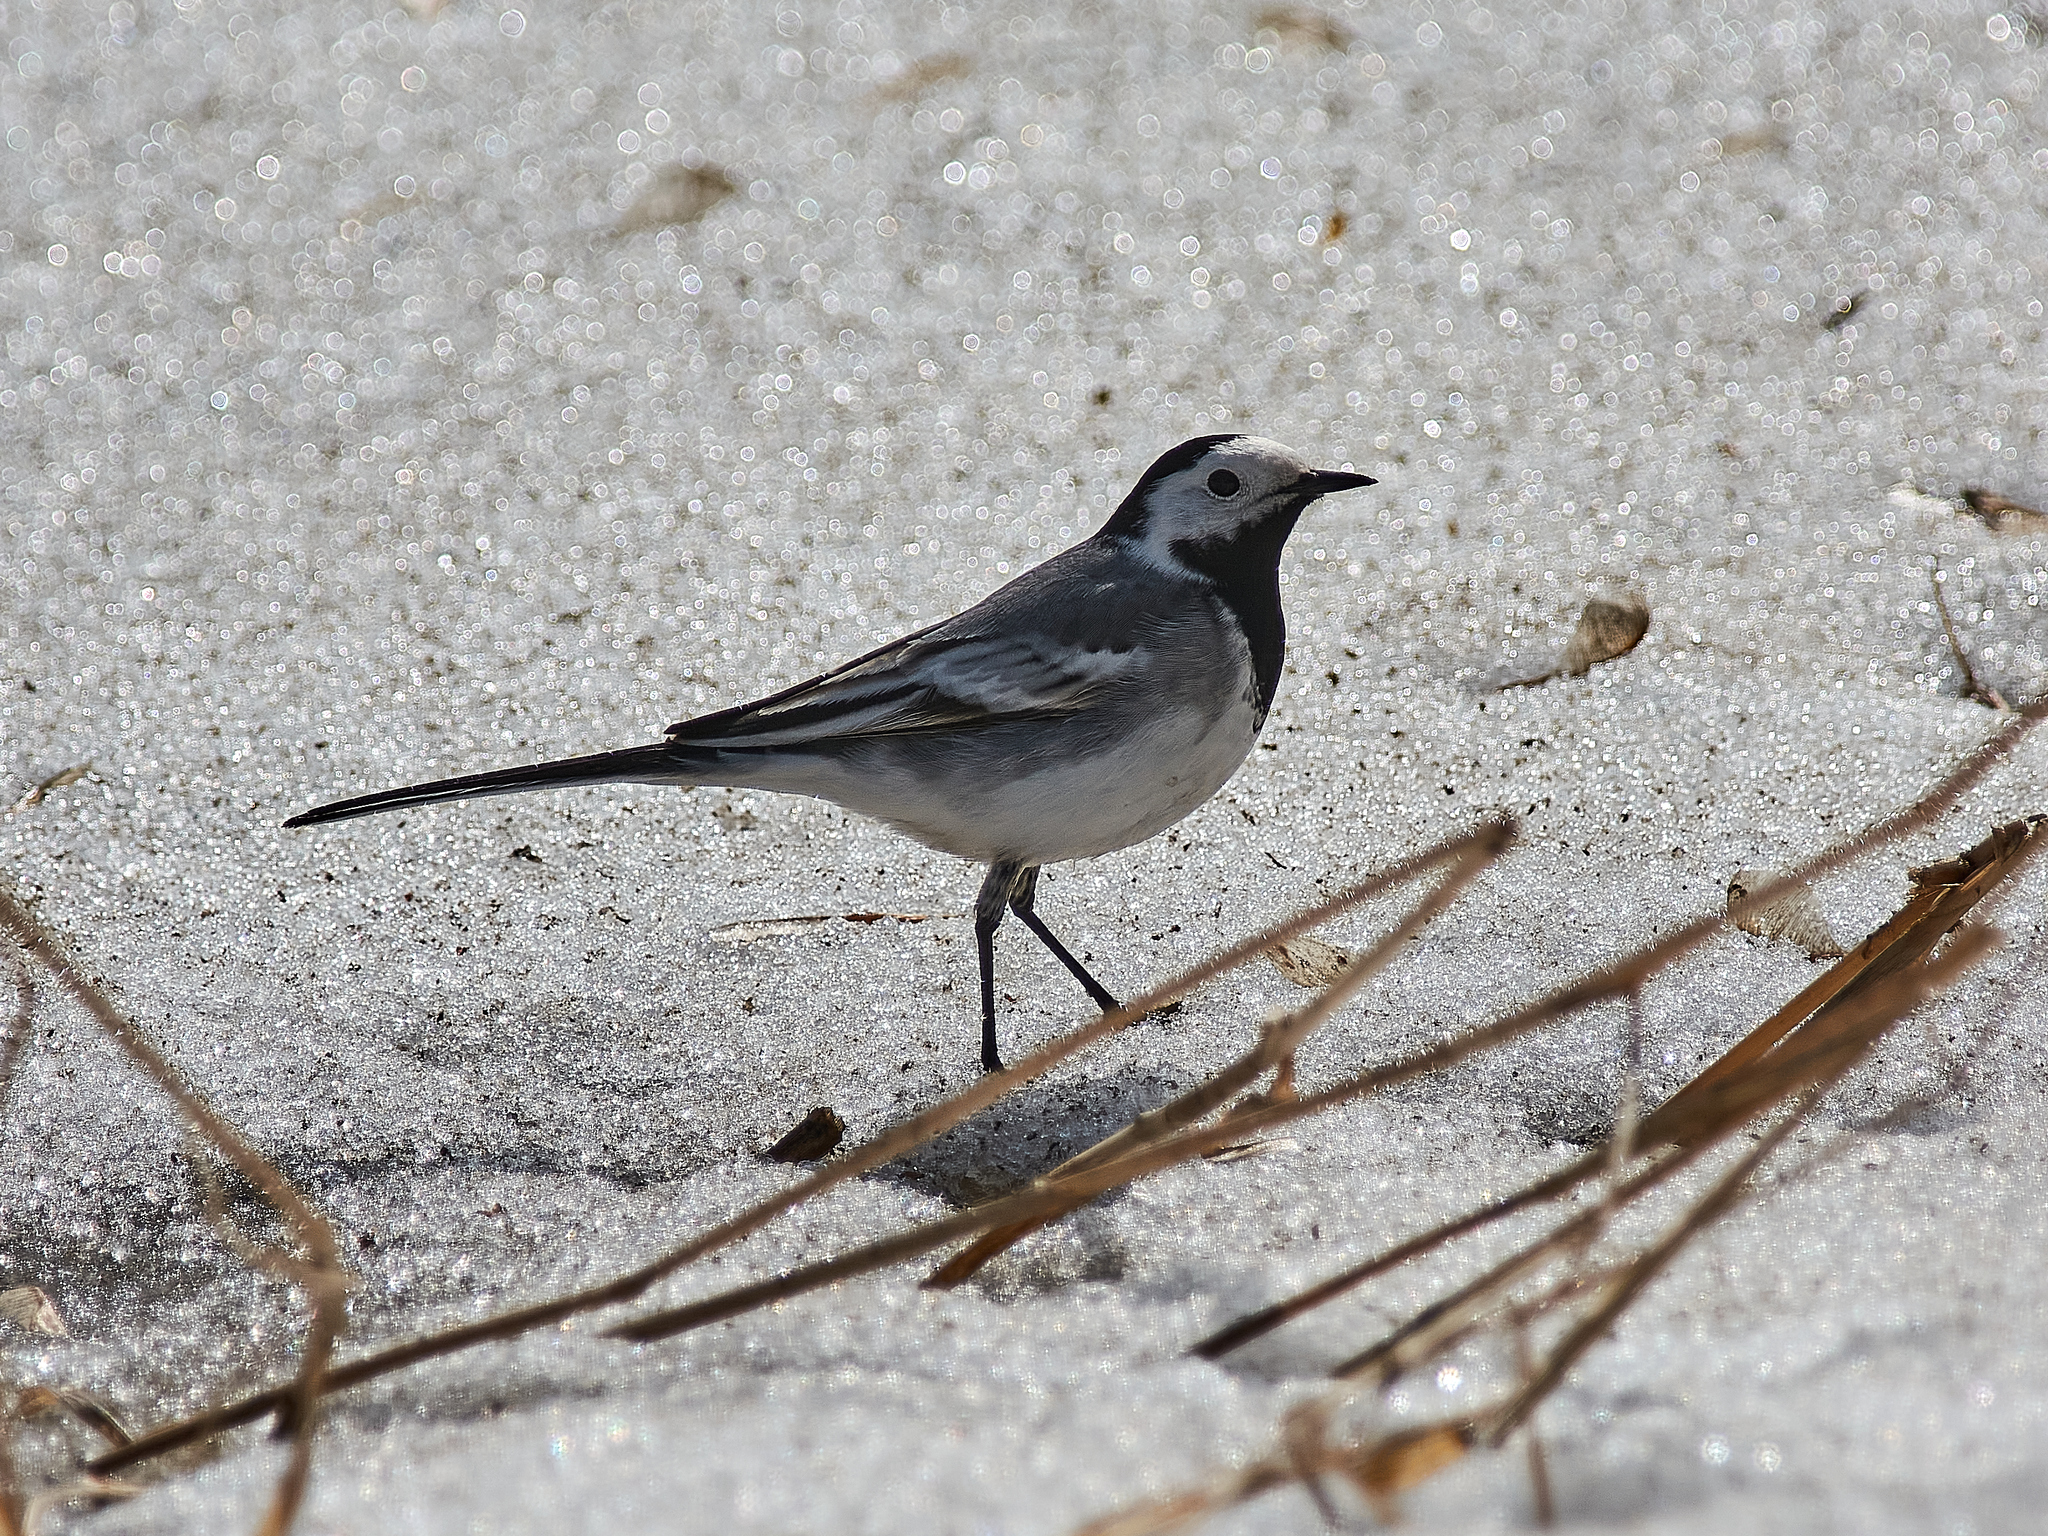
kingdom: Animalia
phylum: Chordata
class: Aves
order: Passeriformes
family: Motacillidae
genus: Motacilla
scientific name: Motacilla alba
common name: White wagtail
